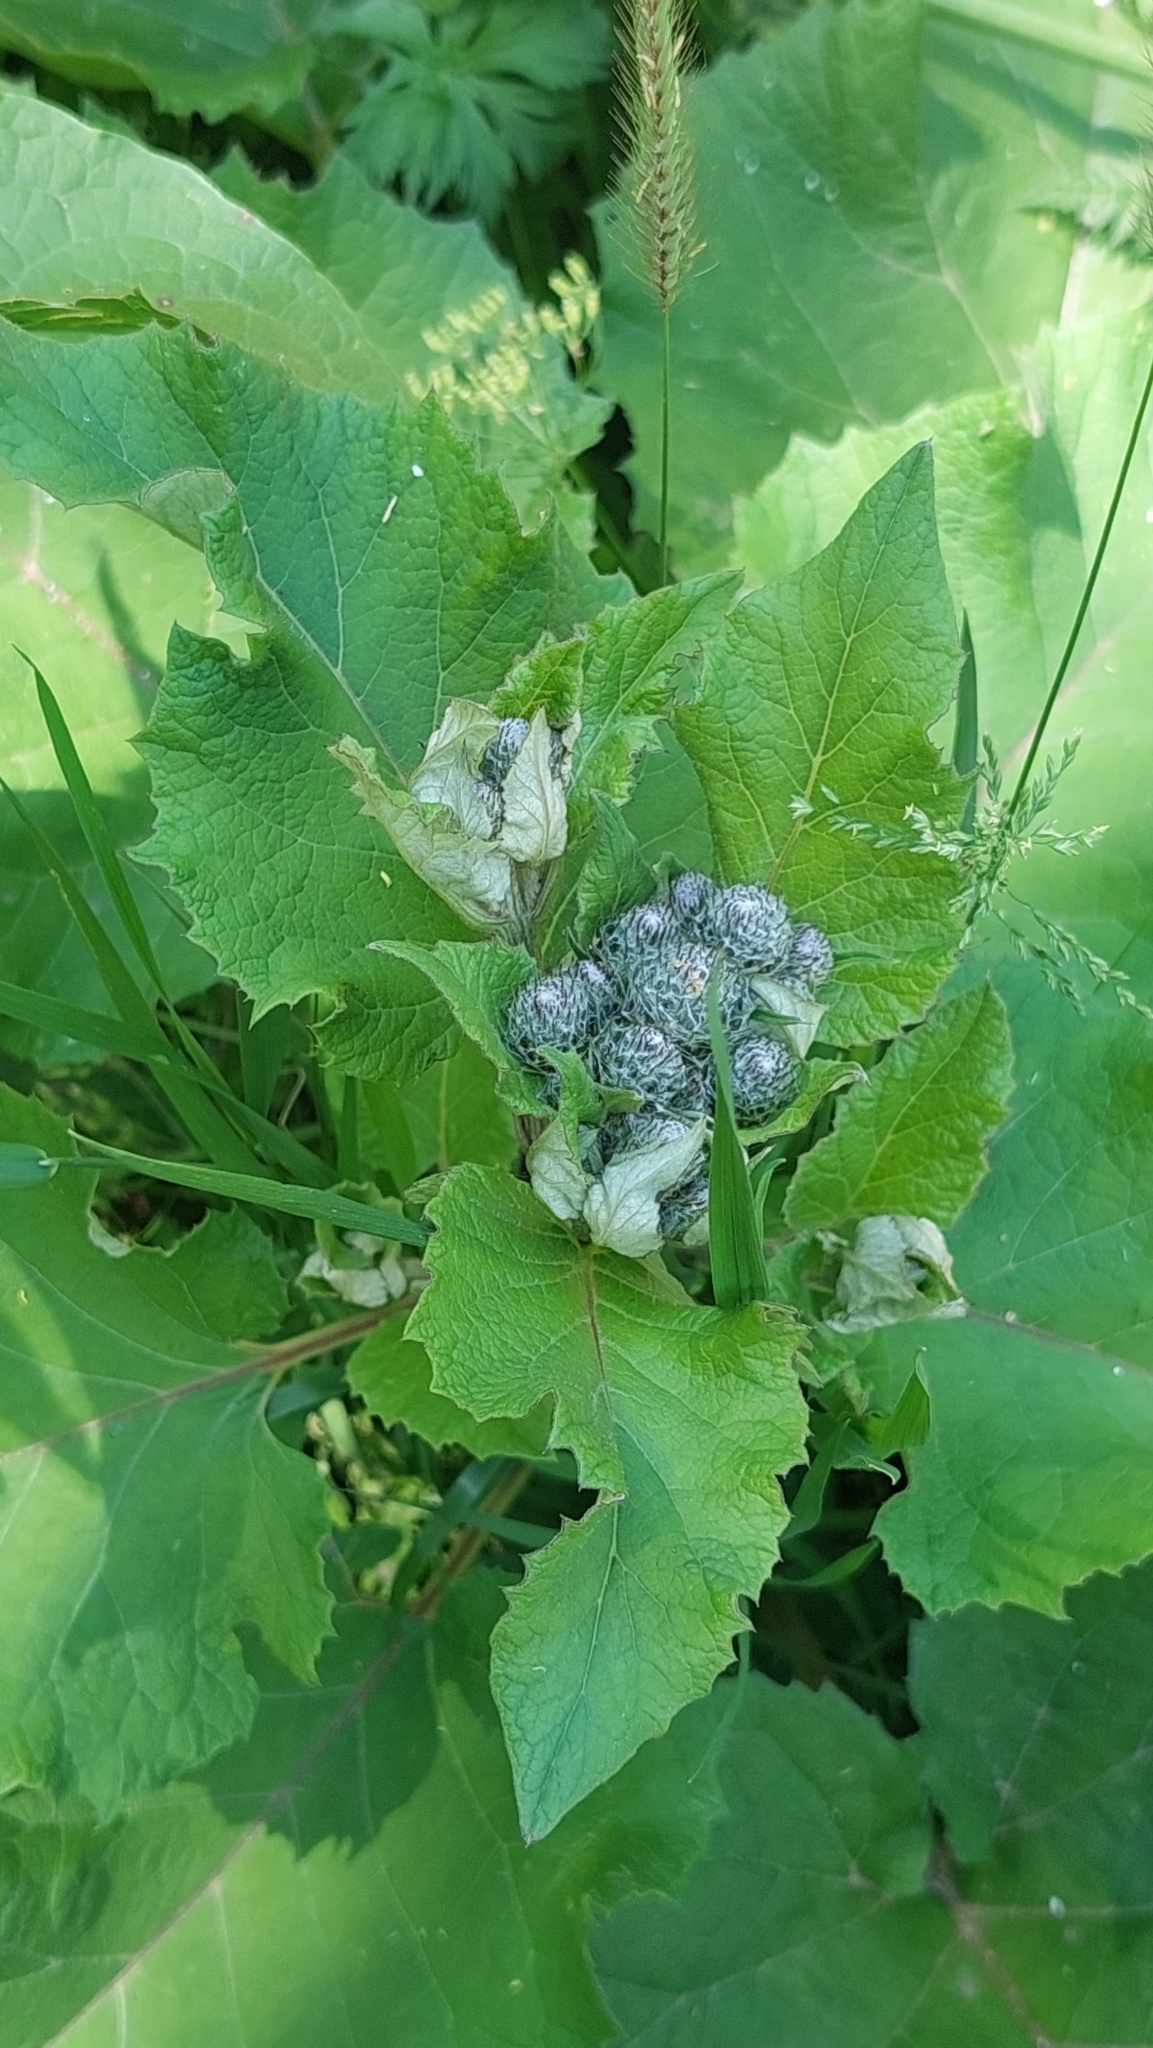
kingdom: Plantae
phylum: Tracheophyta
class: Magnoliopsida
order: Asterales
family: Asteraceae
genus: Arctium
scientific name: Arctium tomentosum
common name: Woolly burdock
